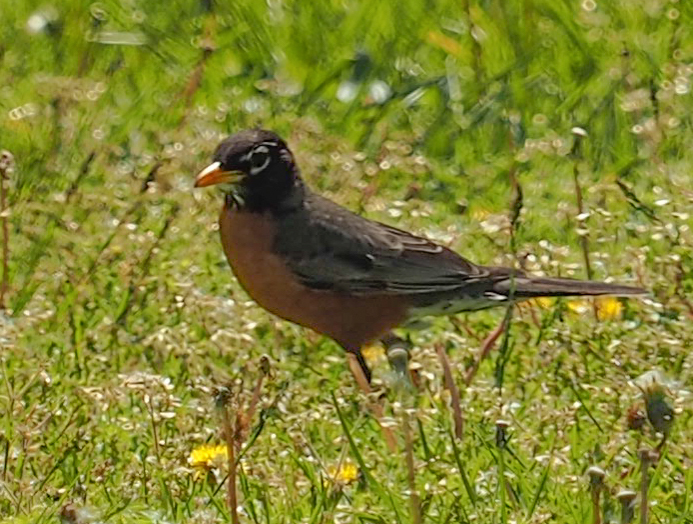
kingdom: Animalia
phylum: Chordata
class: Aves
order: Passeriformes
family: Turdidae
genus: Turdus
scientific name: Turdus migratorius
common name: American robin
